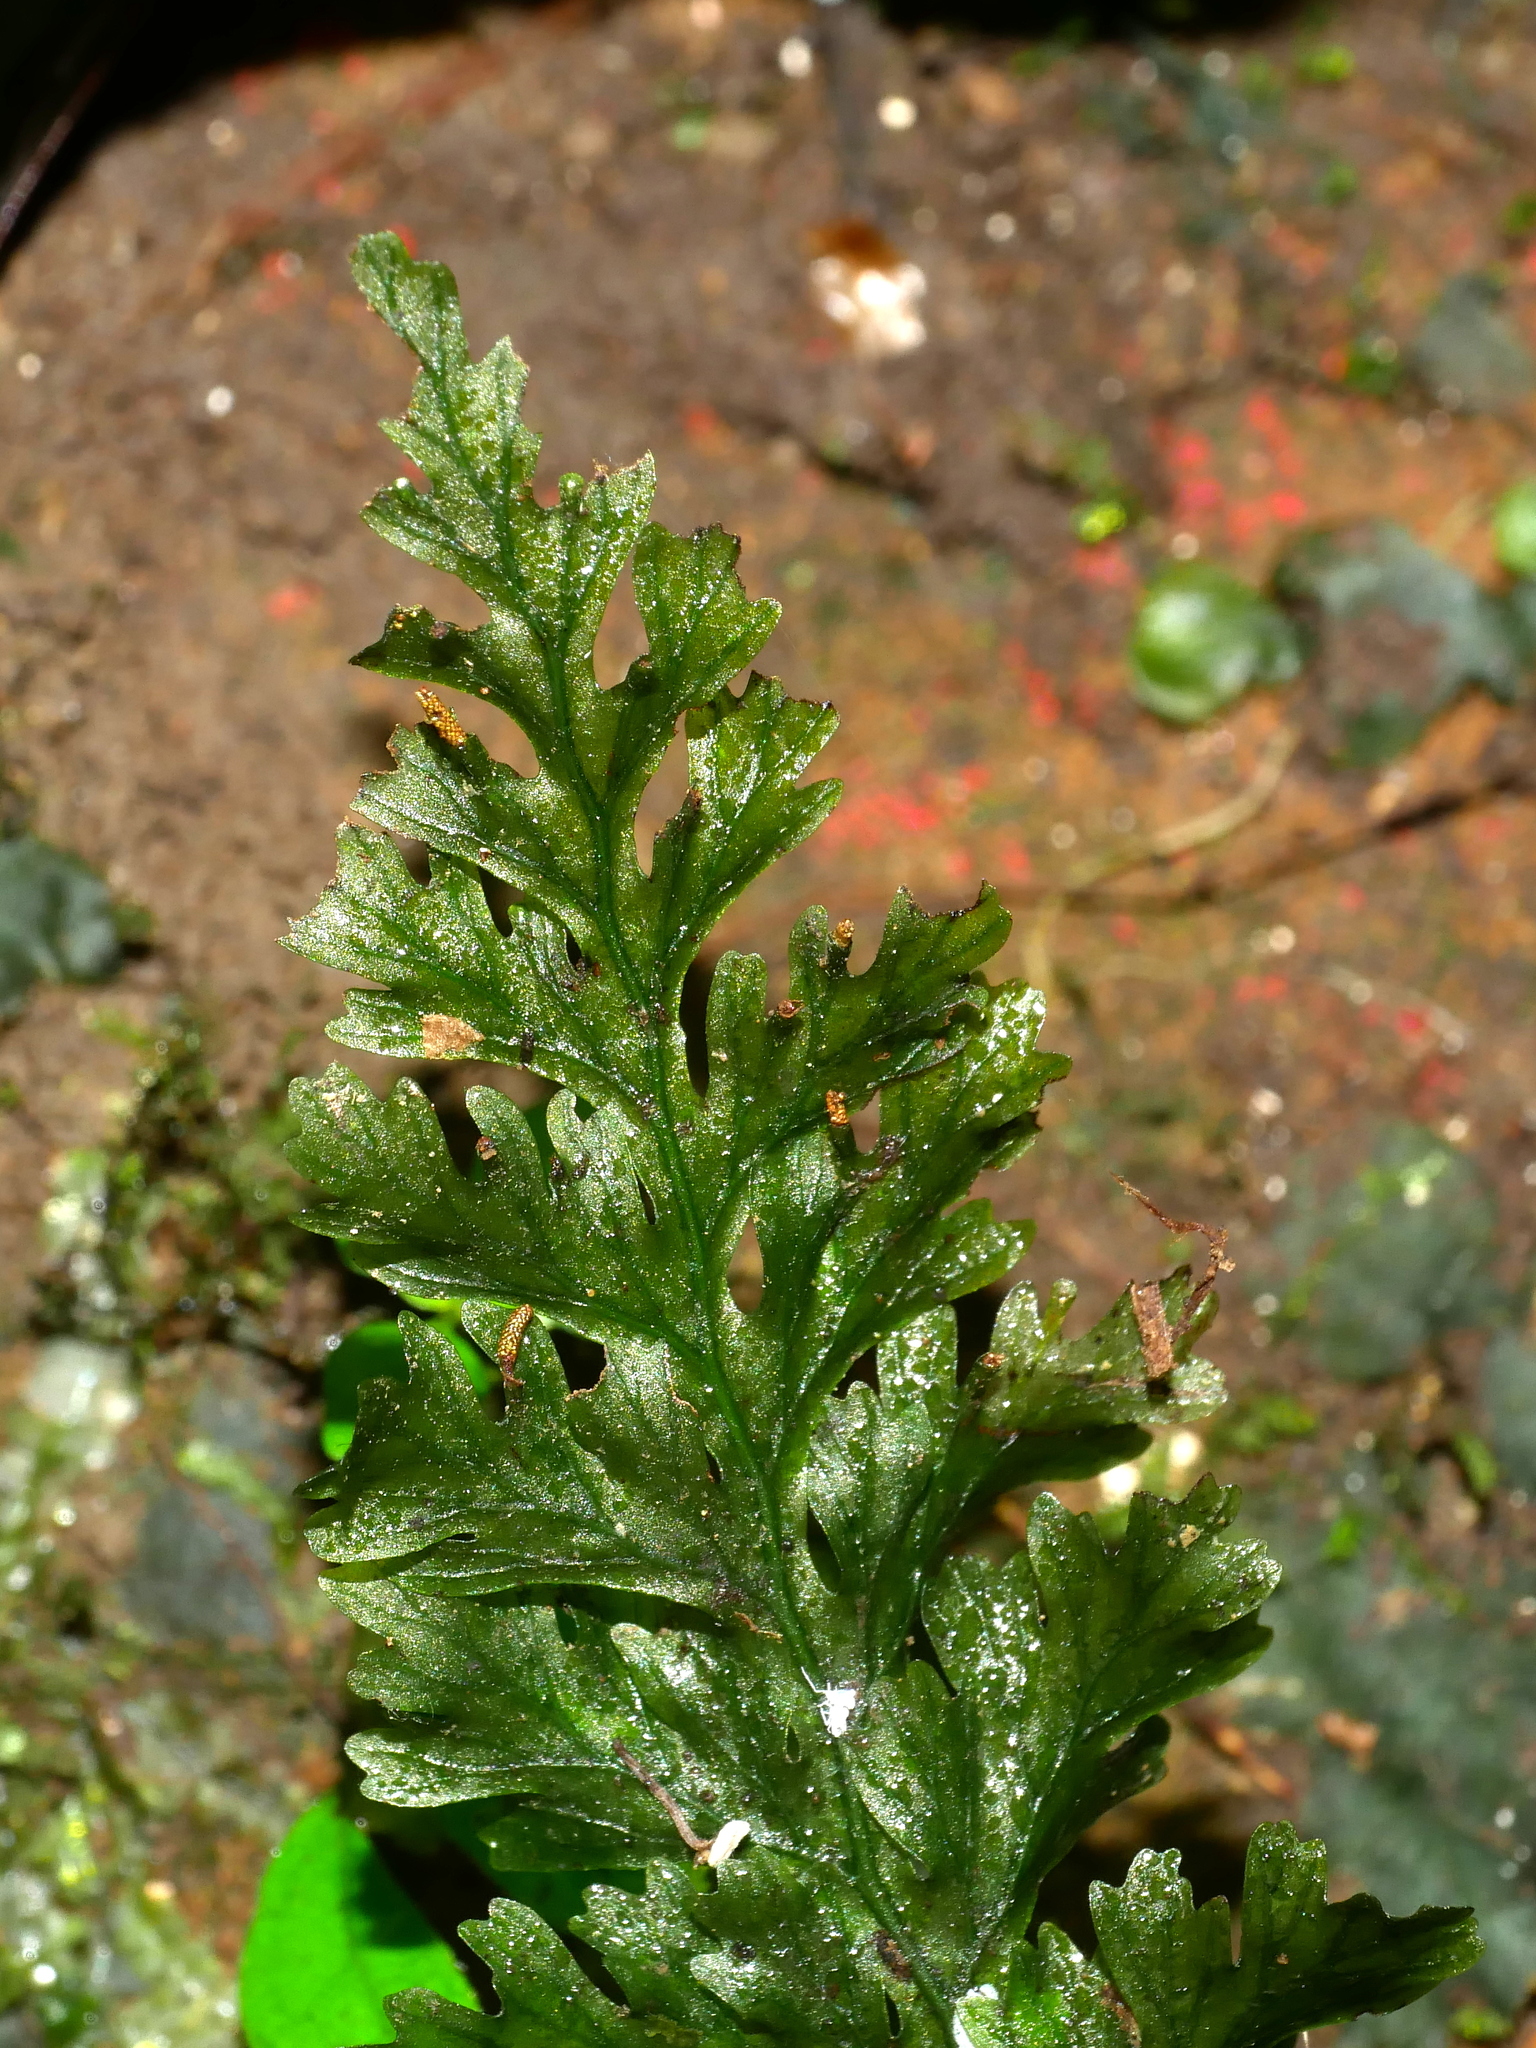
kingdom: Plantae
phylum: Tracheophyta
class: Polypodiopsida
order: Hymenophyllales
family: Hymenophyllaceae
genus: Vandenboschia
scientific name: Vandenboschia kalamocarpa
